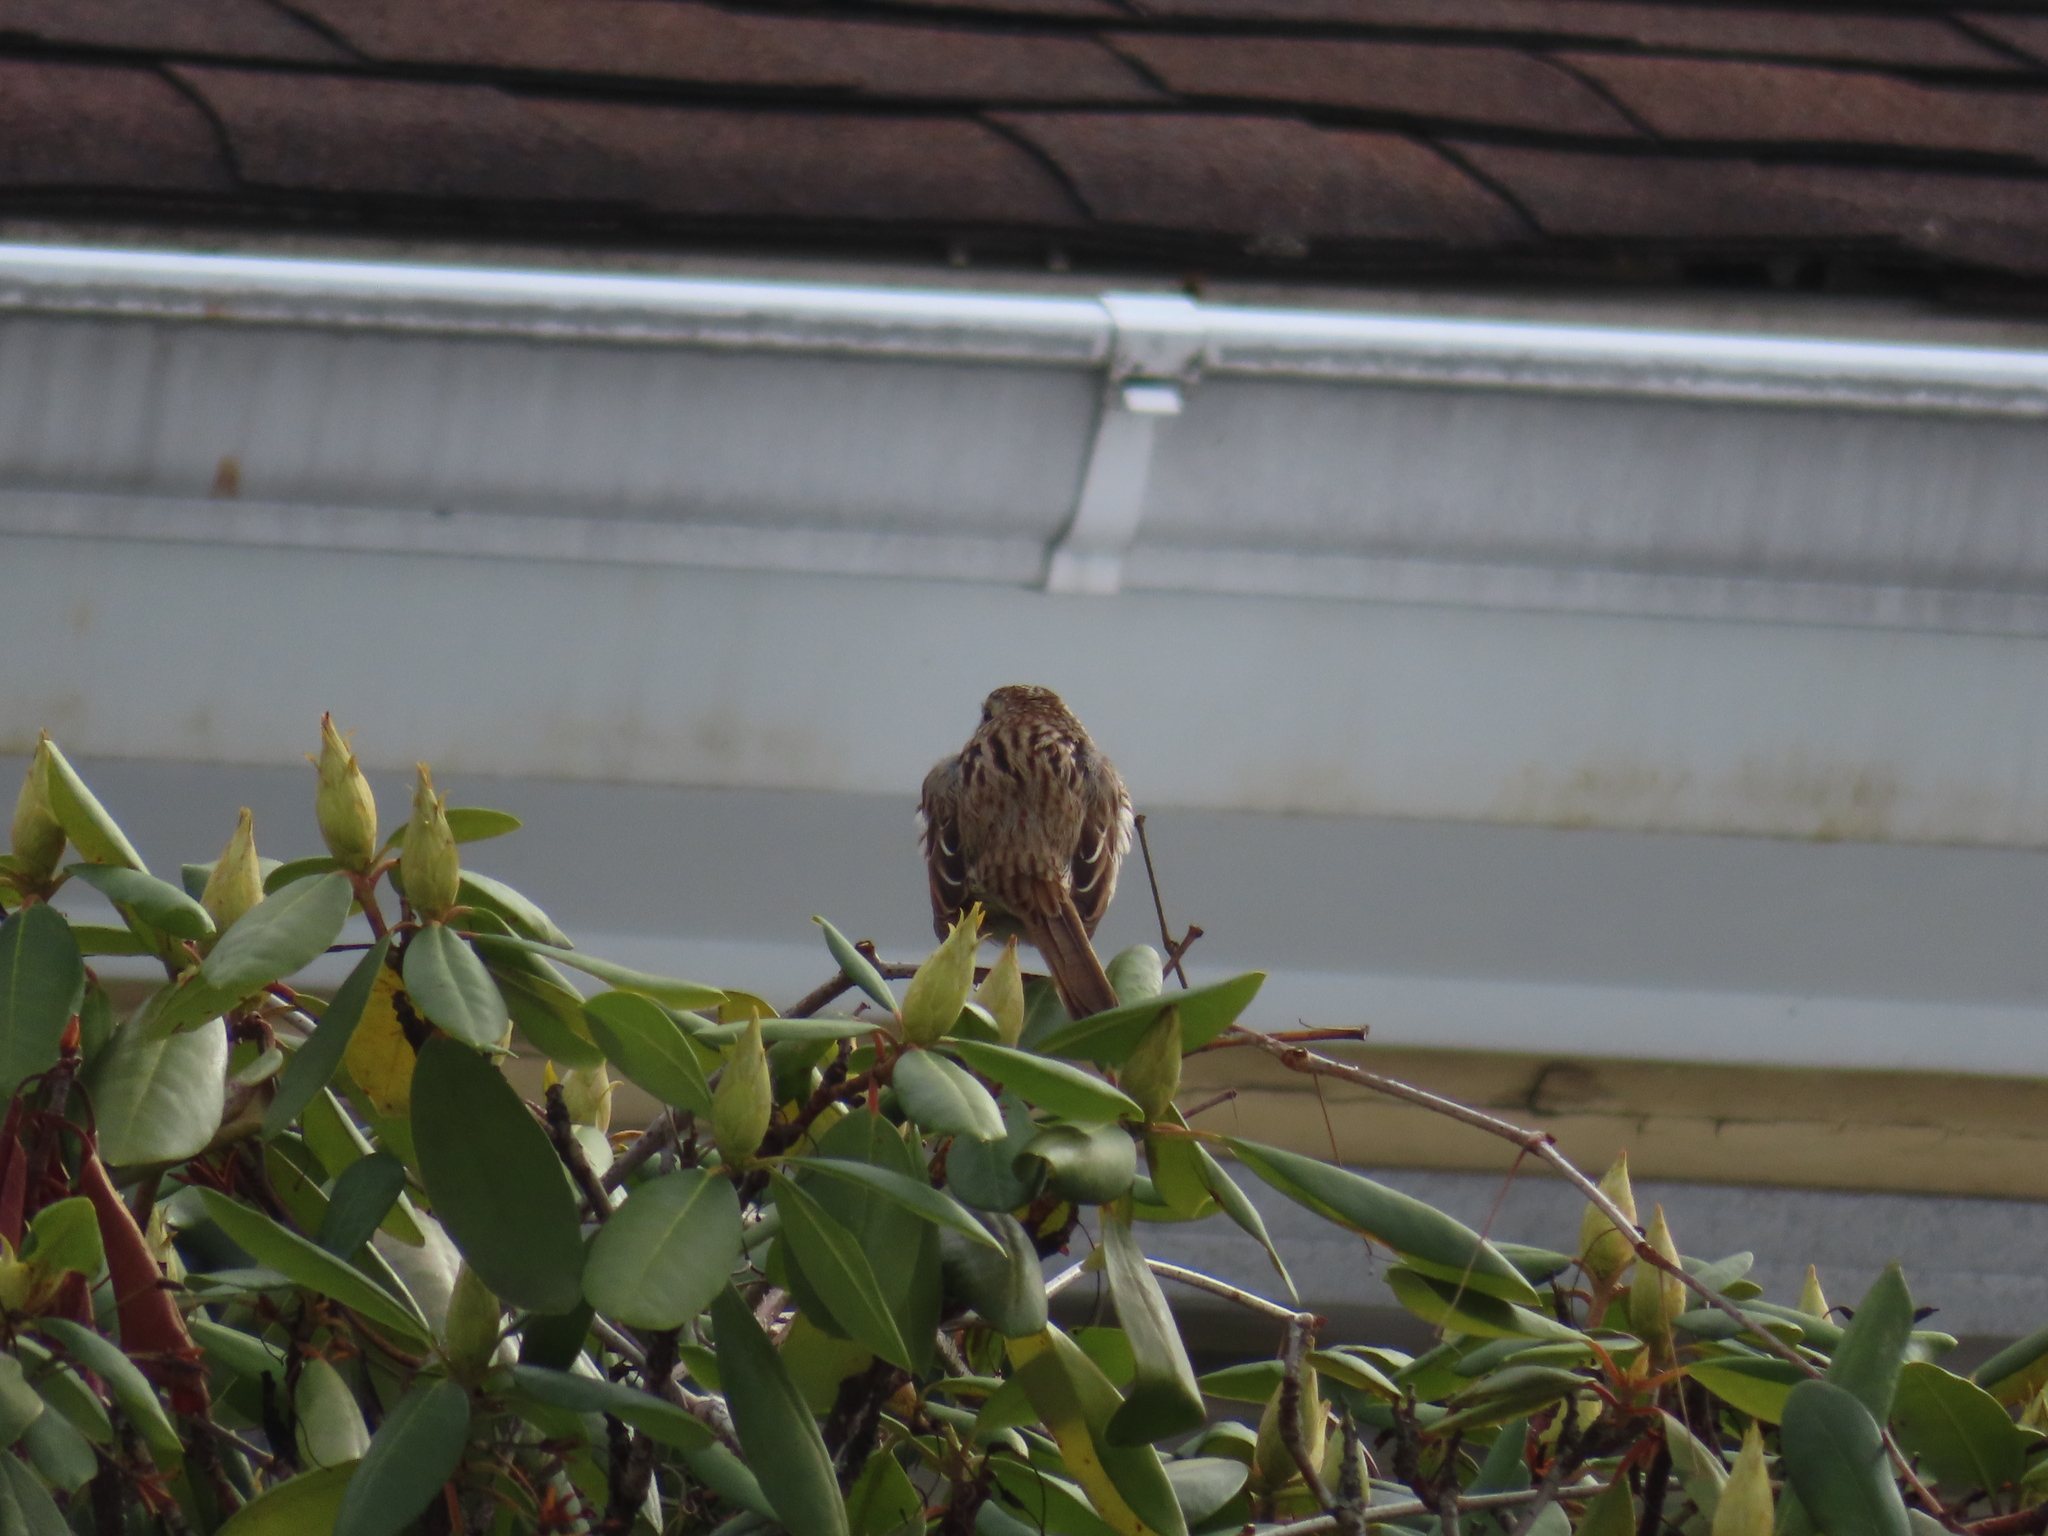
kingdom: Animalia
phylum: Chordata
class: Aves
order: Passeriformes
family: Passerellidae
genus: Melospiza
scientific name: Melospiza melodia
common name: Song sparrow
